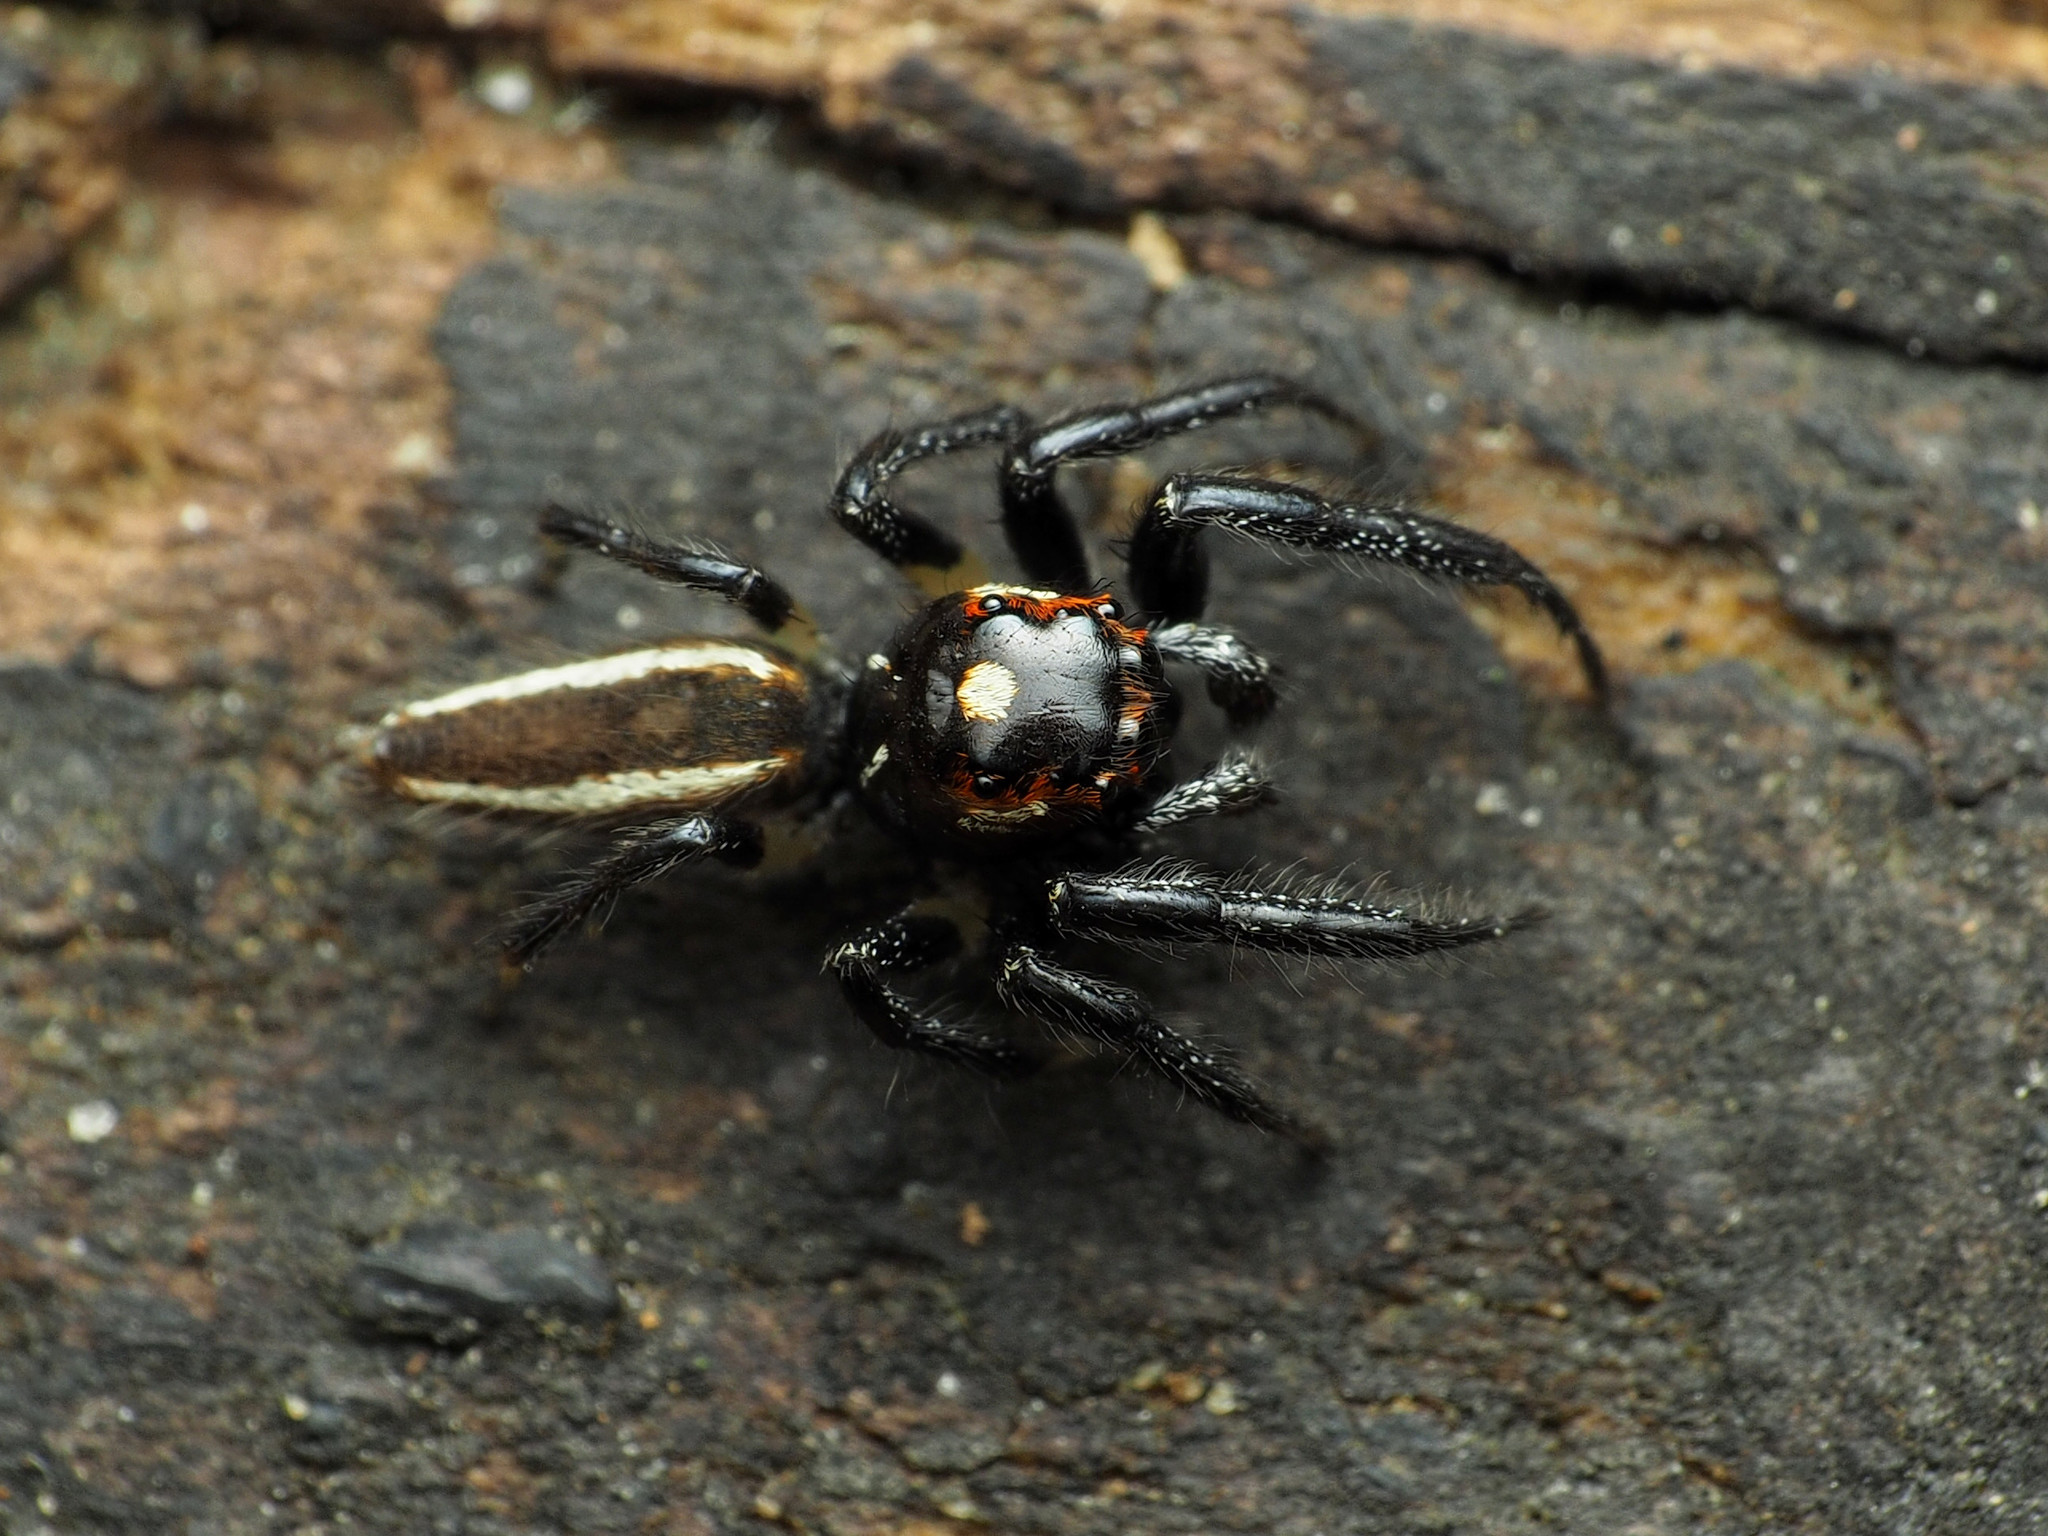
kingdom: Animalia
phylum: Arthropoda
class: Arachnida
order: Araneae
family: Salticidae
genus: Colonus
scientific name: Colonus sylvanus
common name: Jumping spiders
